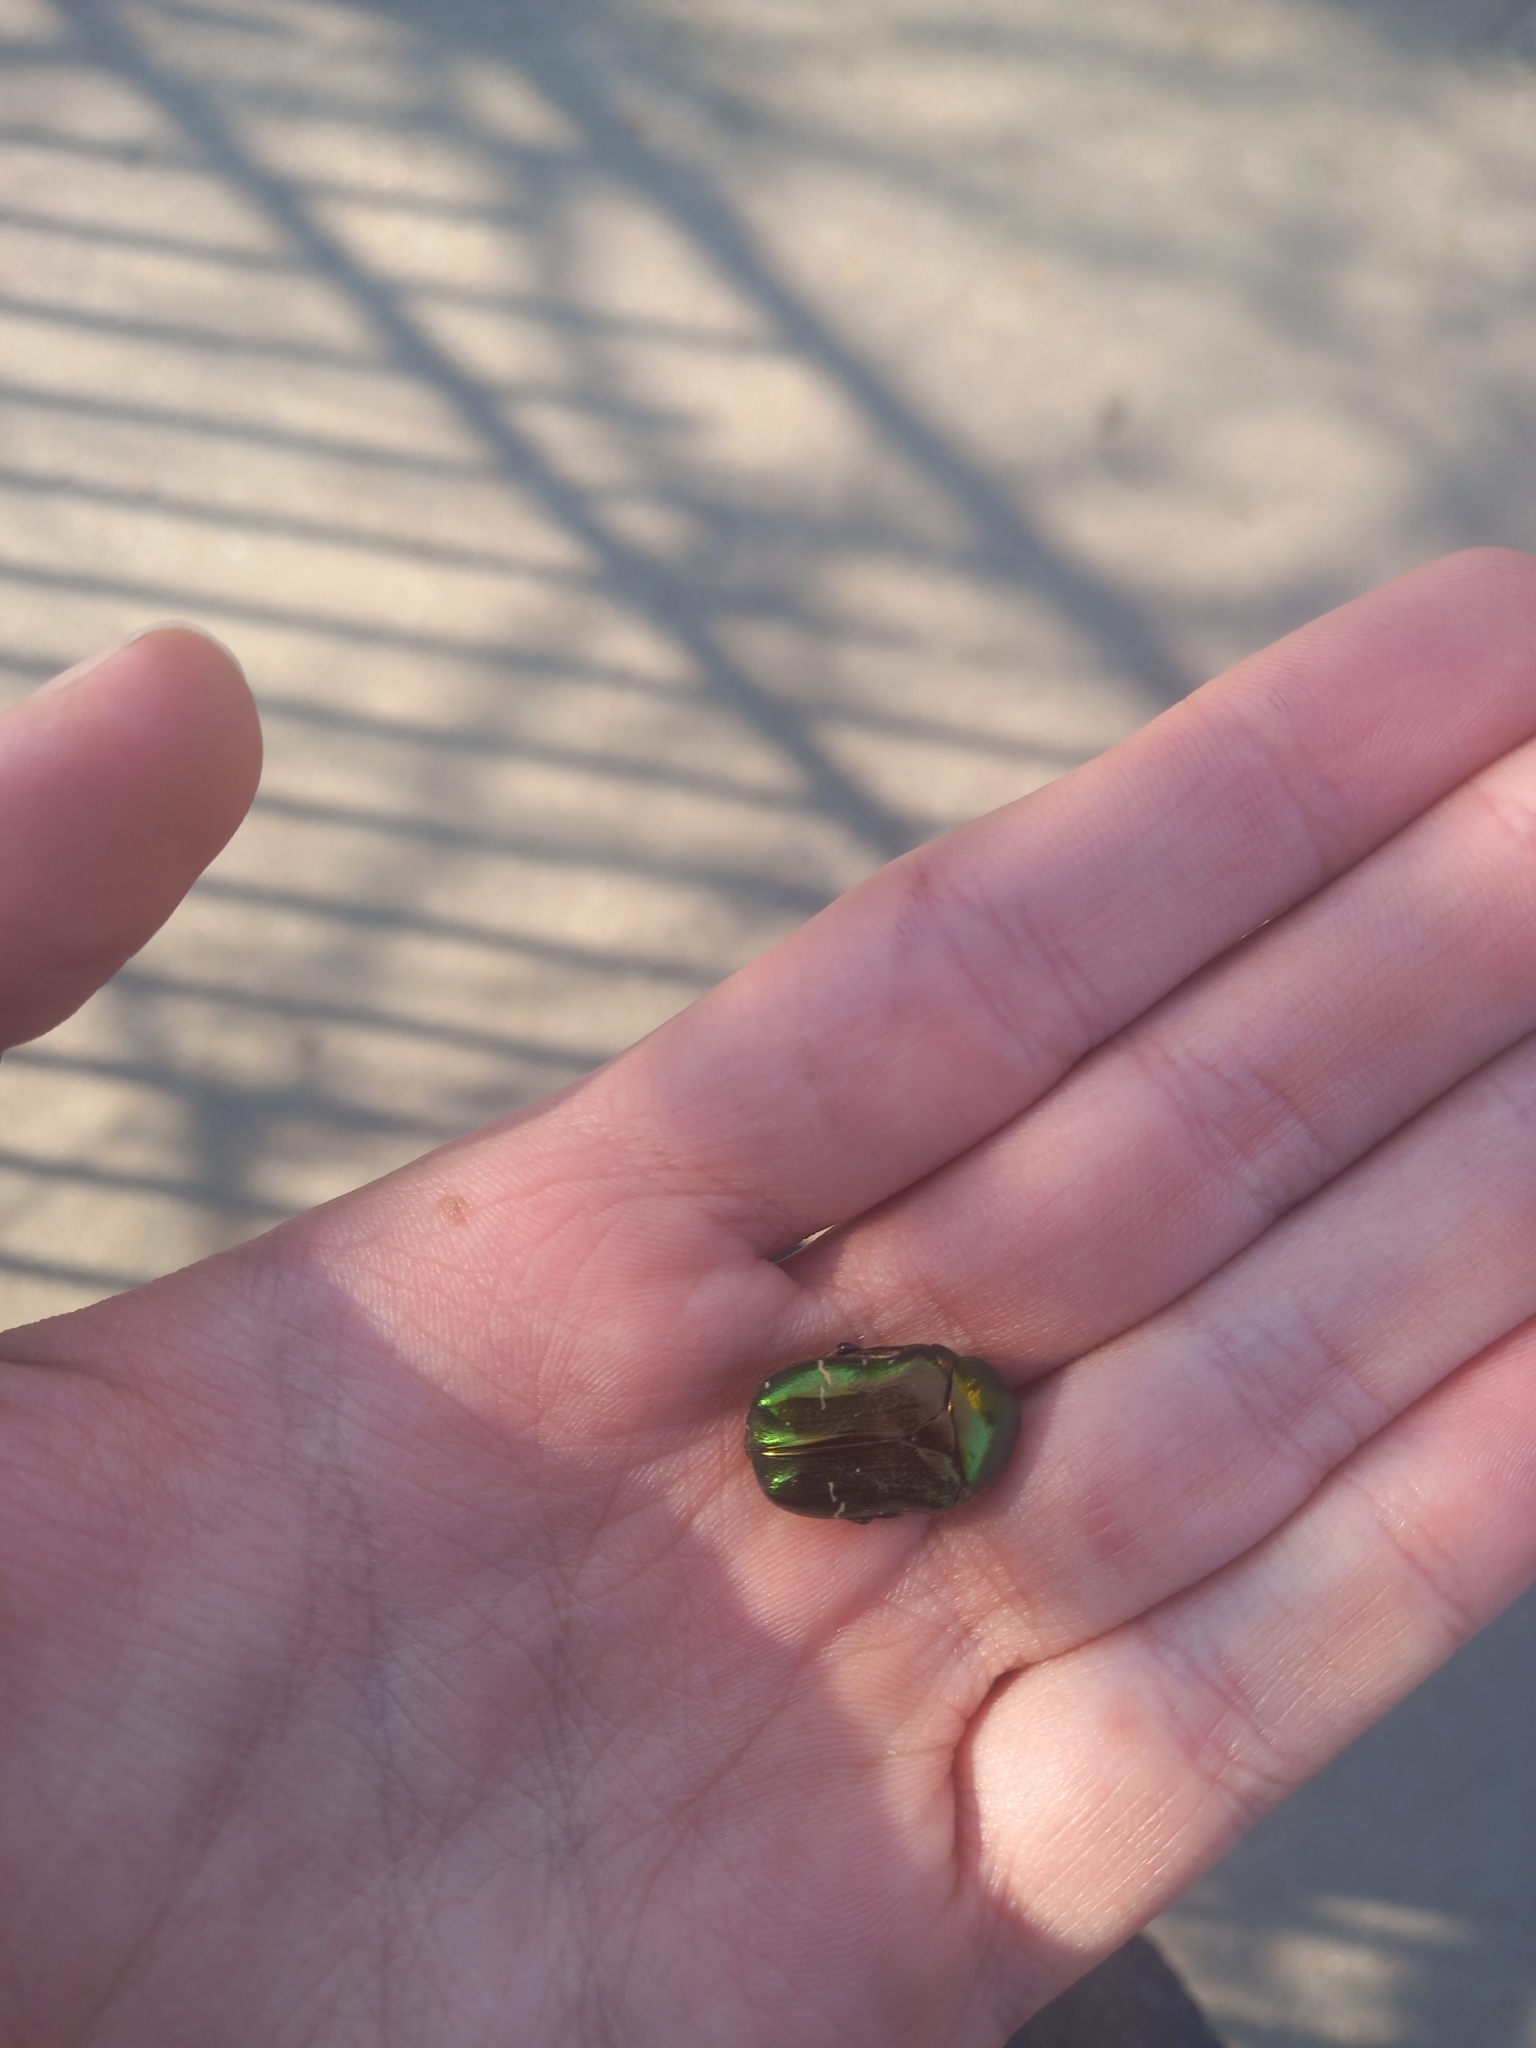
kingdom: Animalia
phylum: Arthropoda
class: Insecta
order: Coleoptera
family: Scarabaeidae
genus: Cetonia
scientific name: Cetonia aurata
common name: Rose chafer
